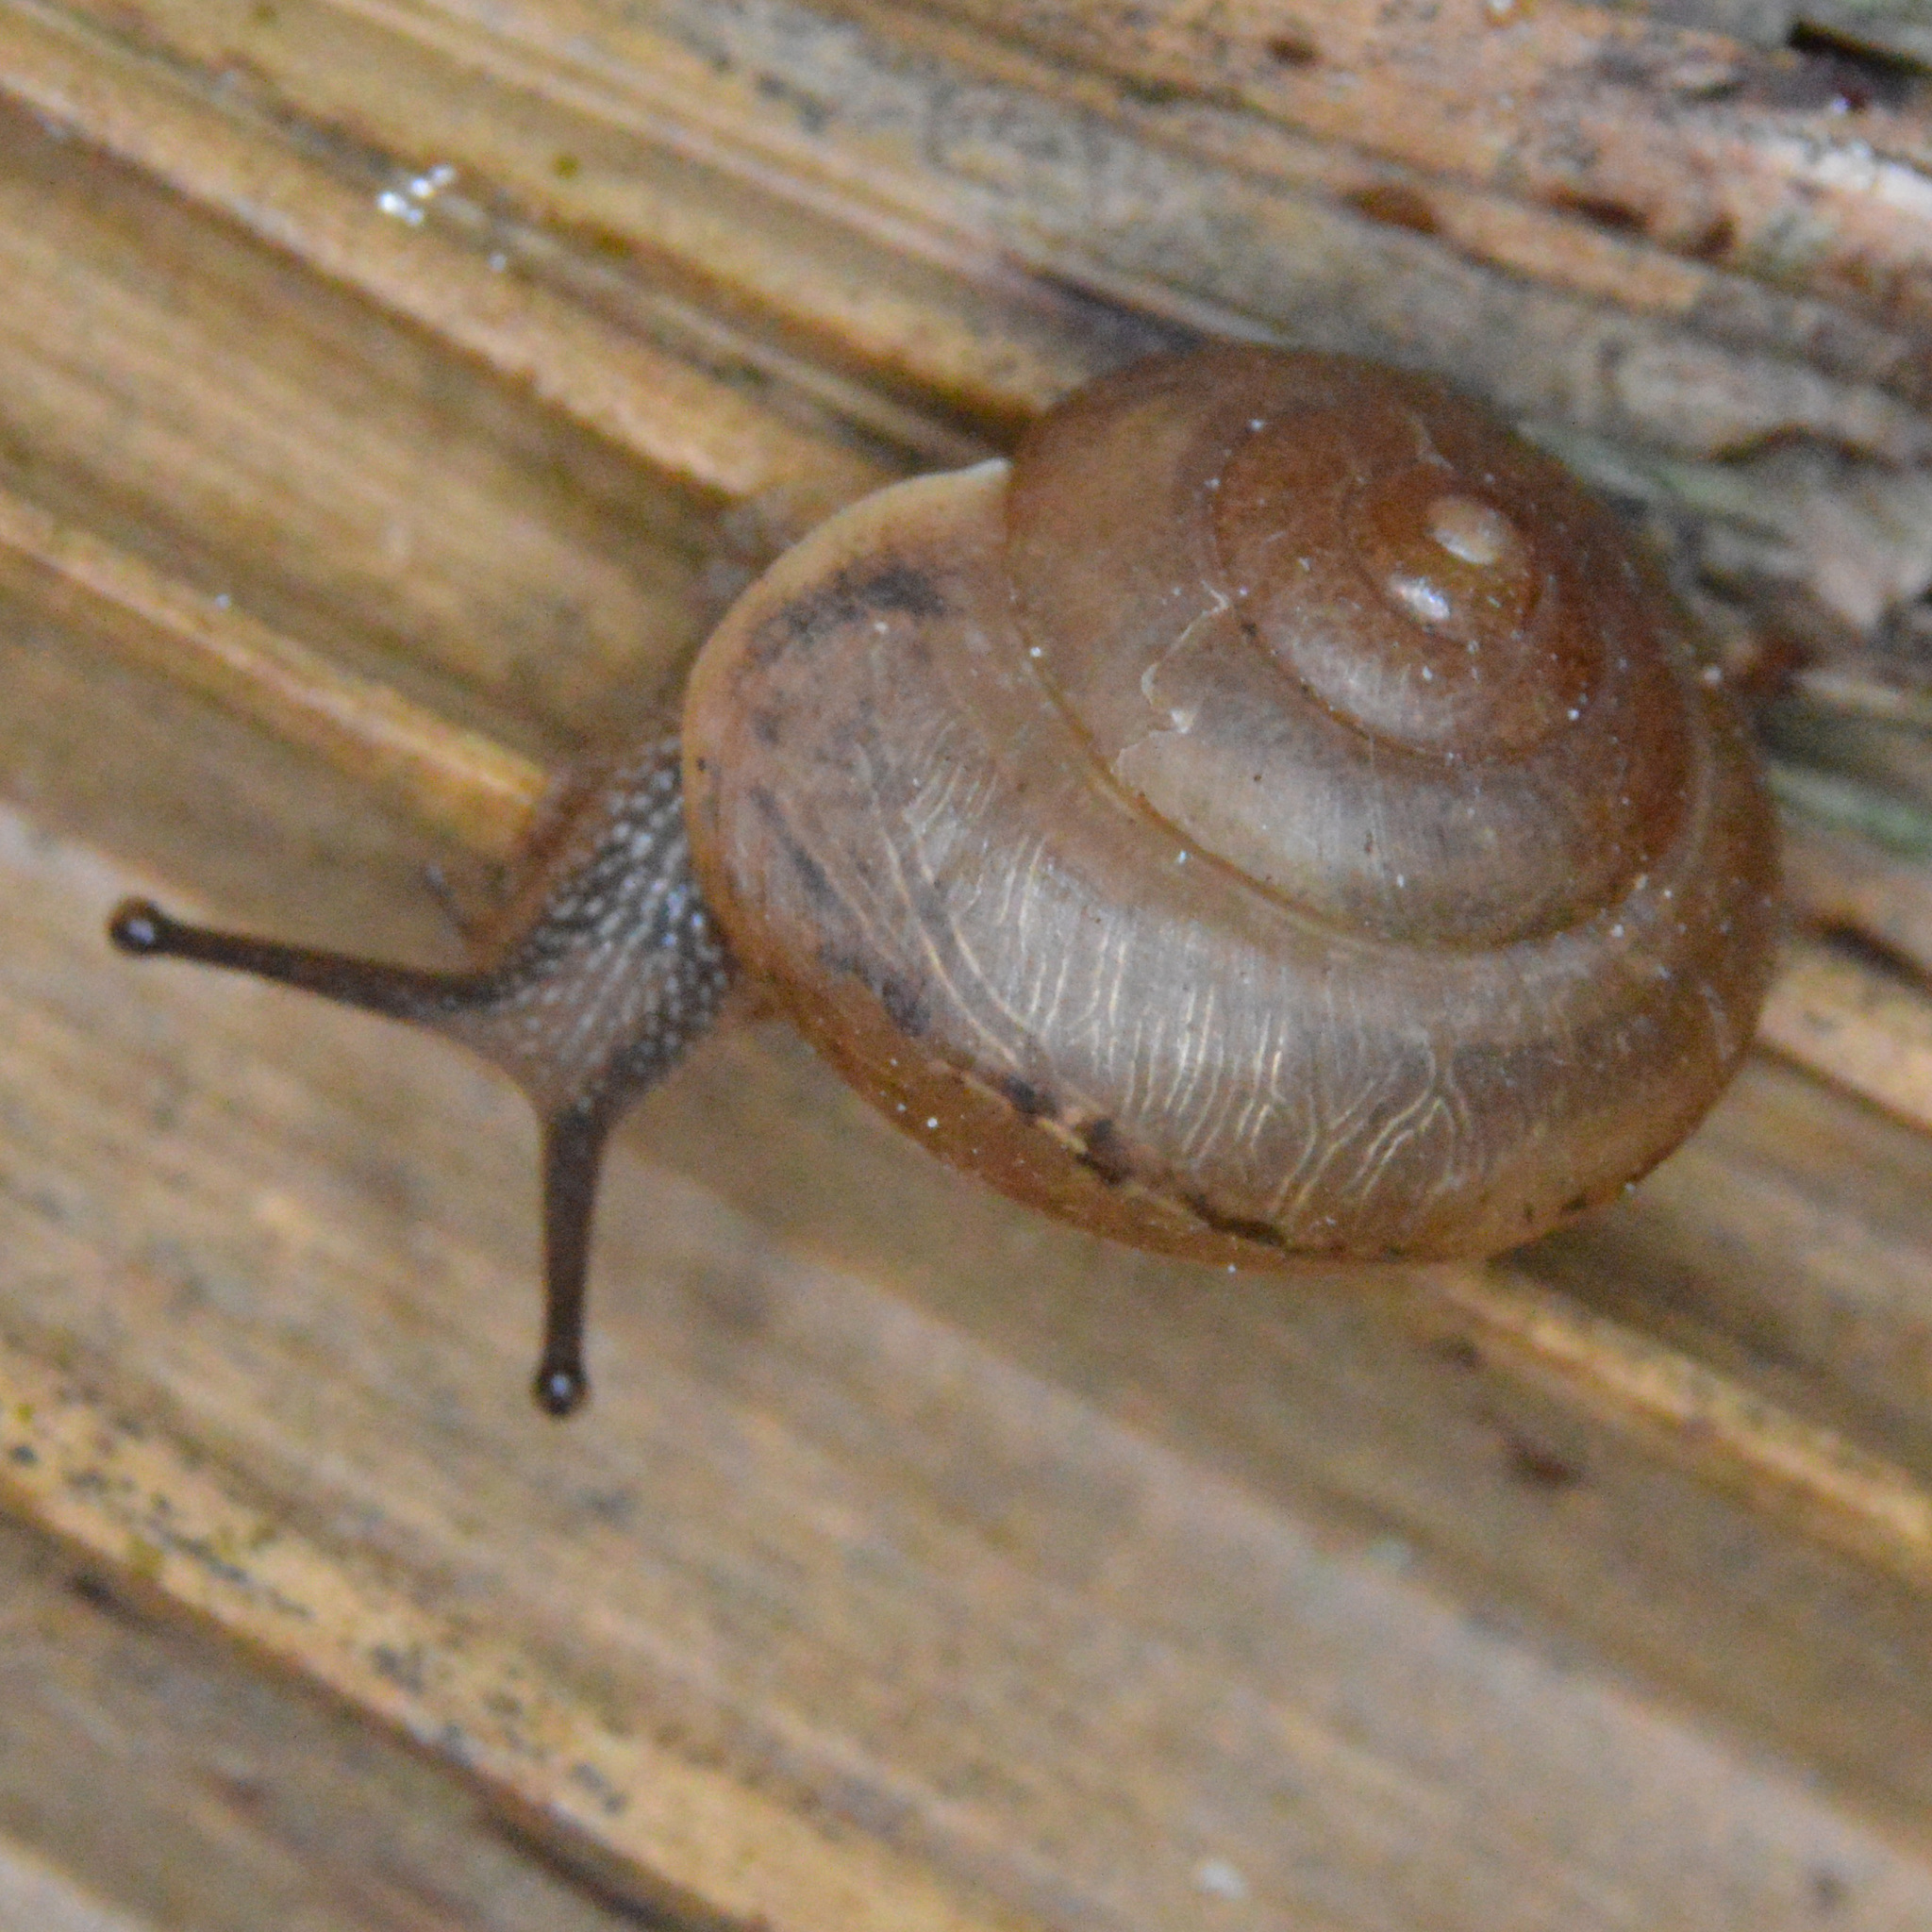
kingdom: Animalia
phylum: Mollusca
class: Gastropoda
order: Stylommatophora
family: Camaenidae
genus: Bradybaena
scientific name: Bradybaena similaris
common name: Asian trampsnail
